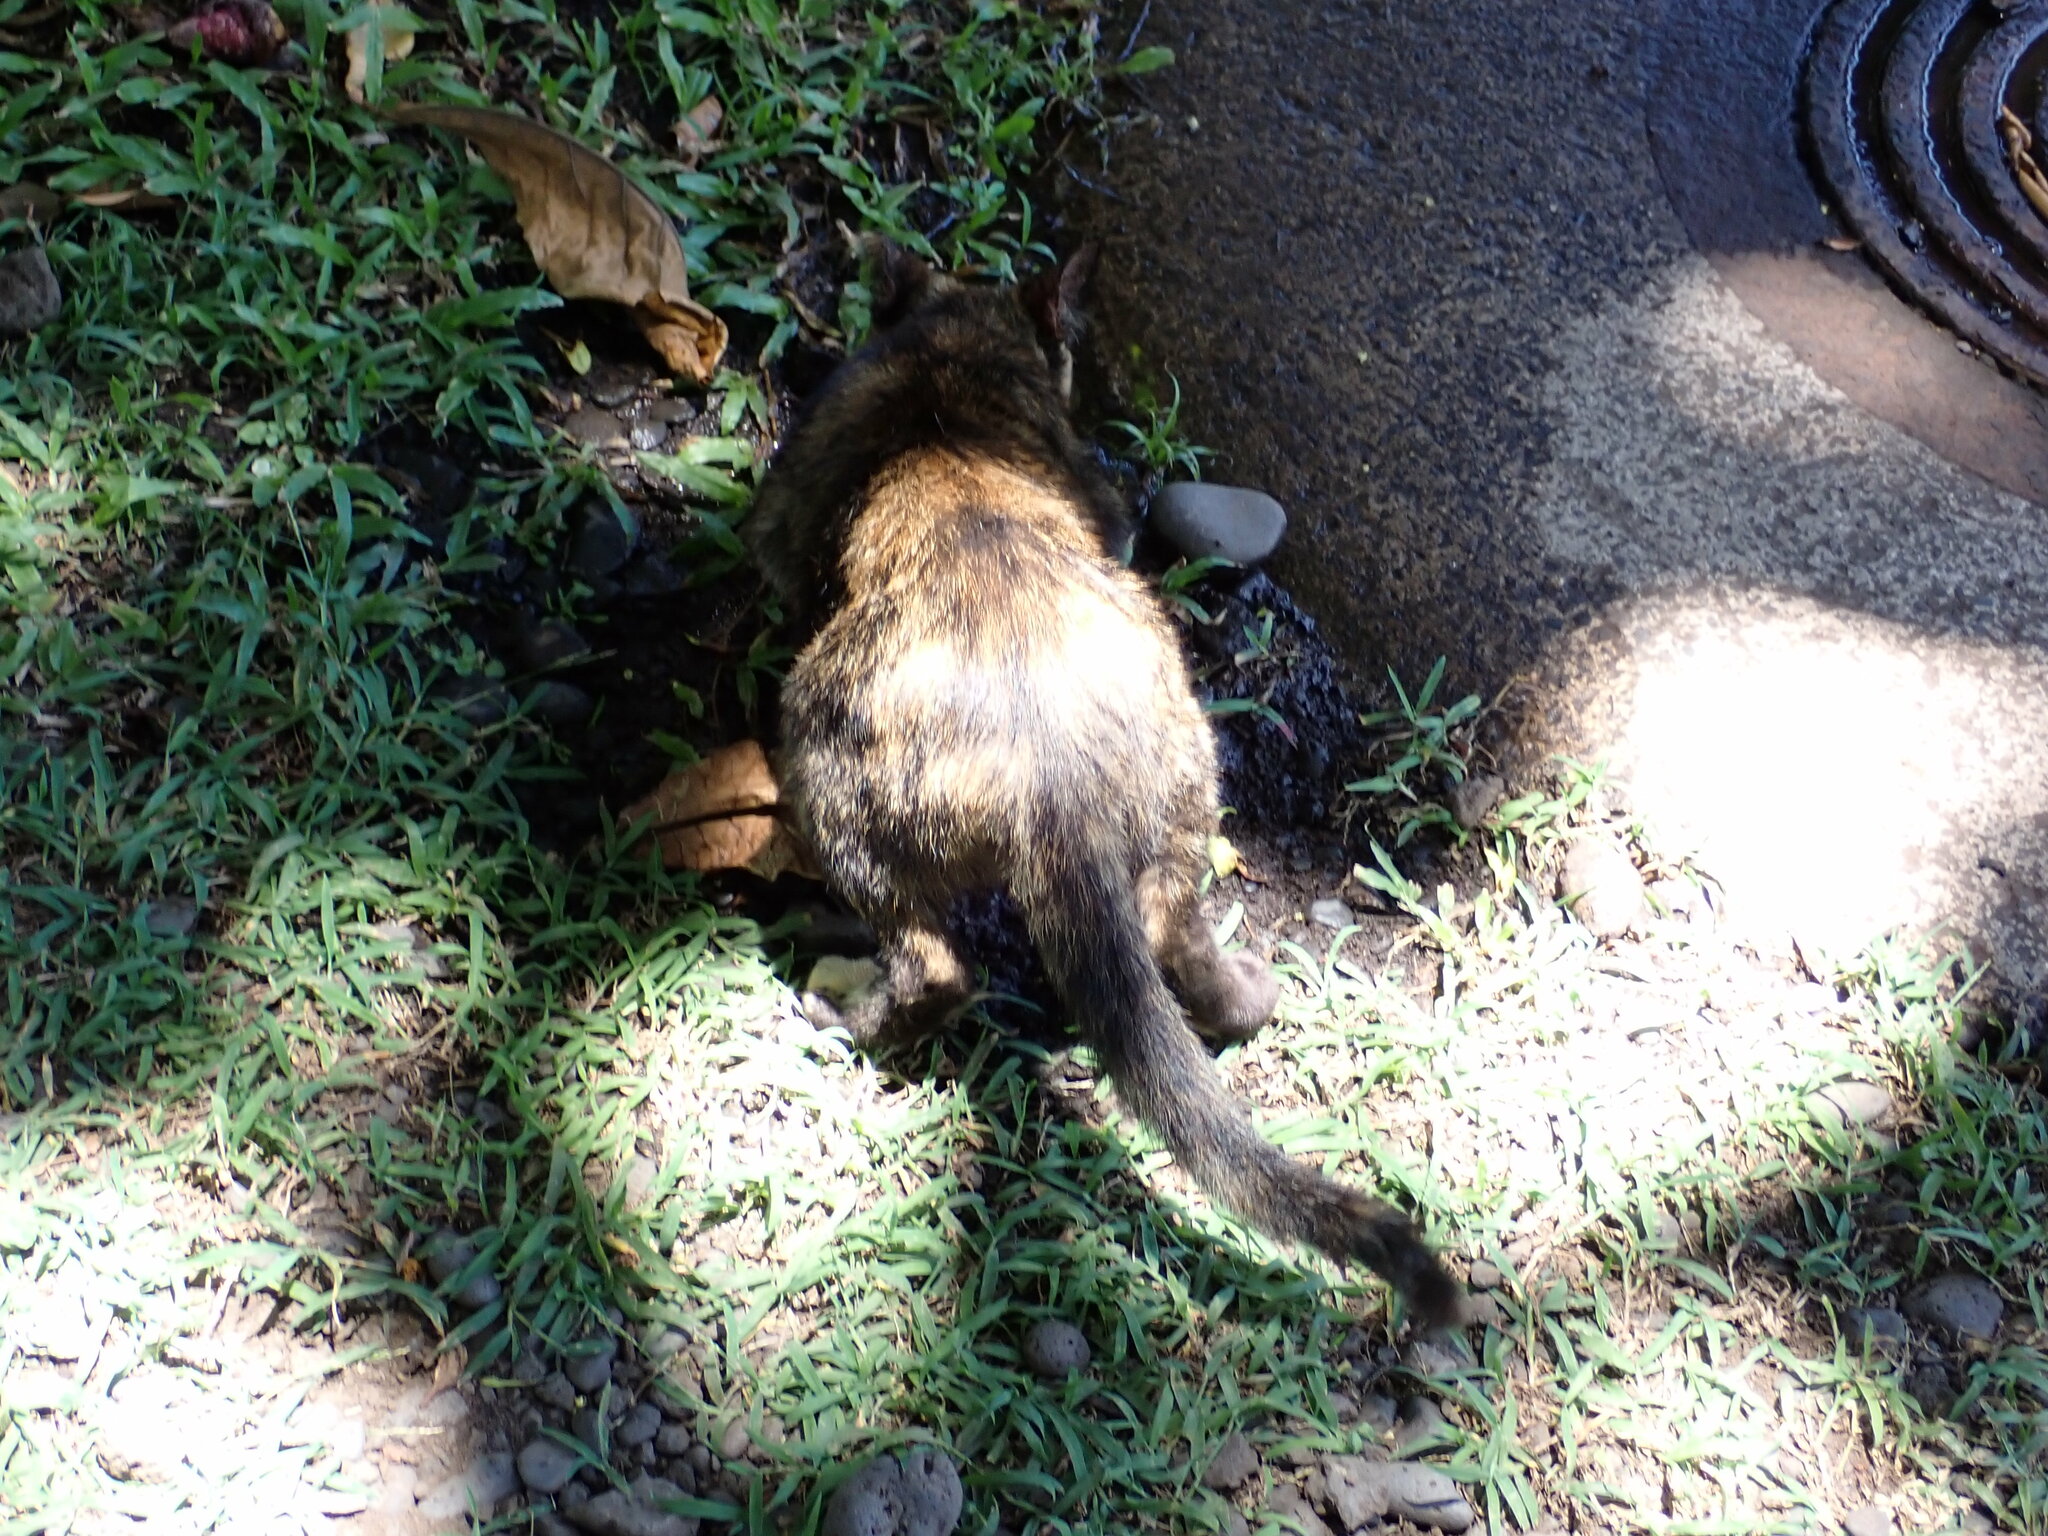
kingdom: Animalia
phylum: Chordata
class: Mammalia
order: Carnivora
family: Felidae
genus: Felis
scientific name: Felis catus
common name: Domestic cat
